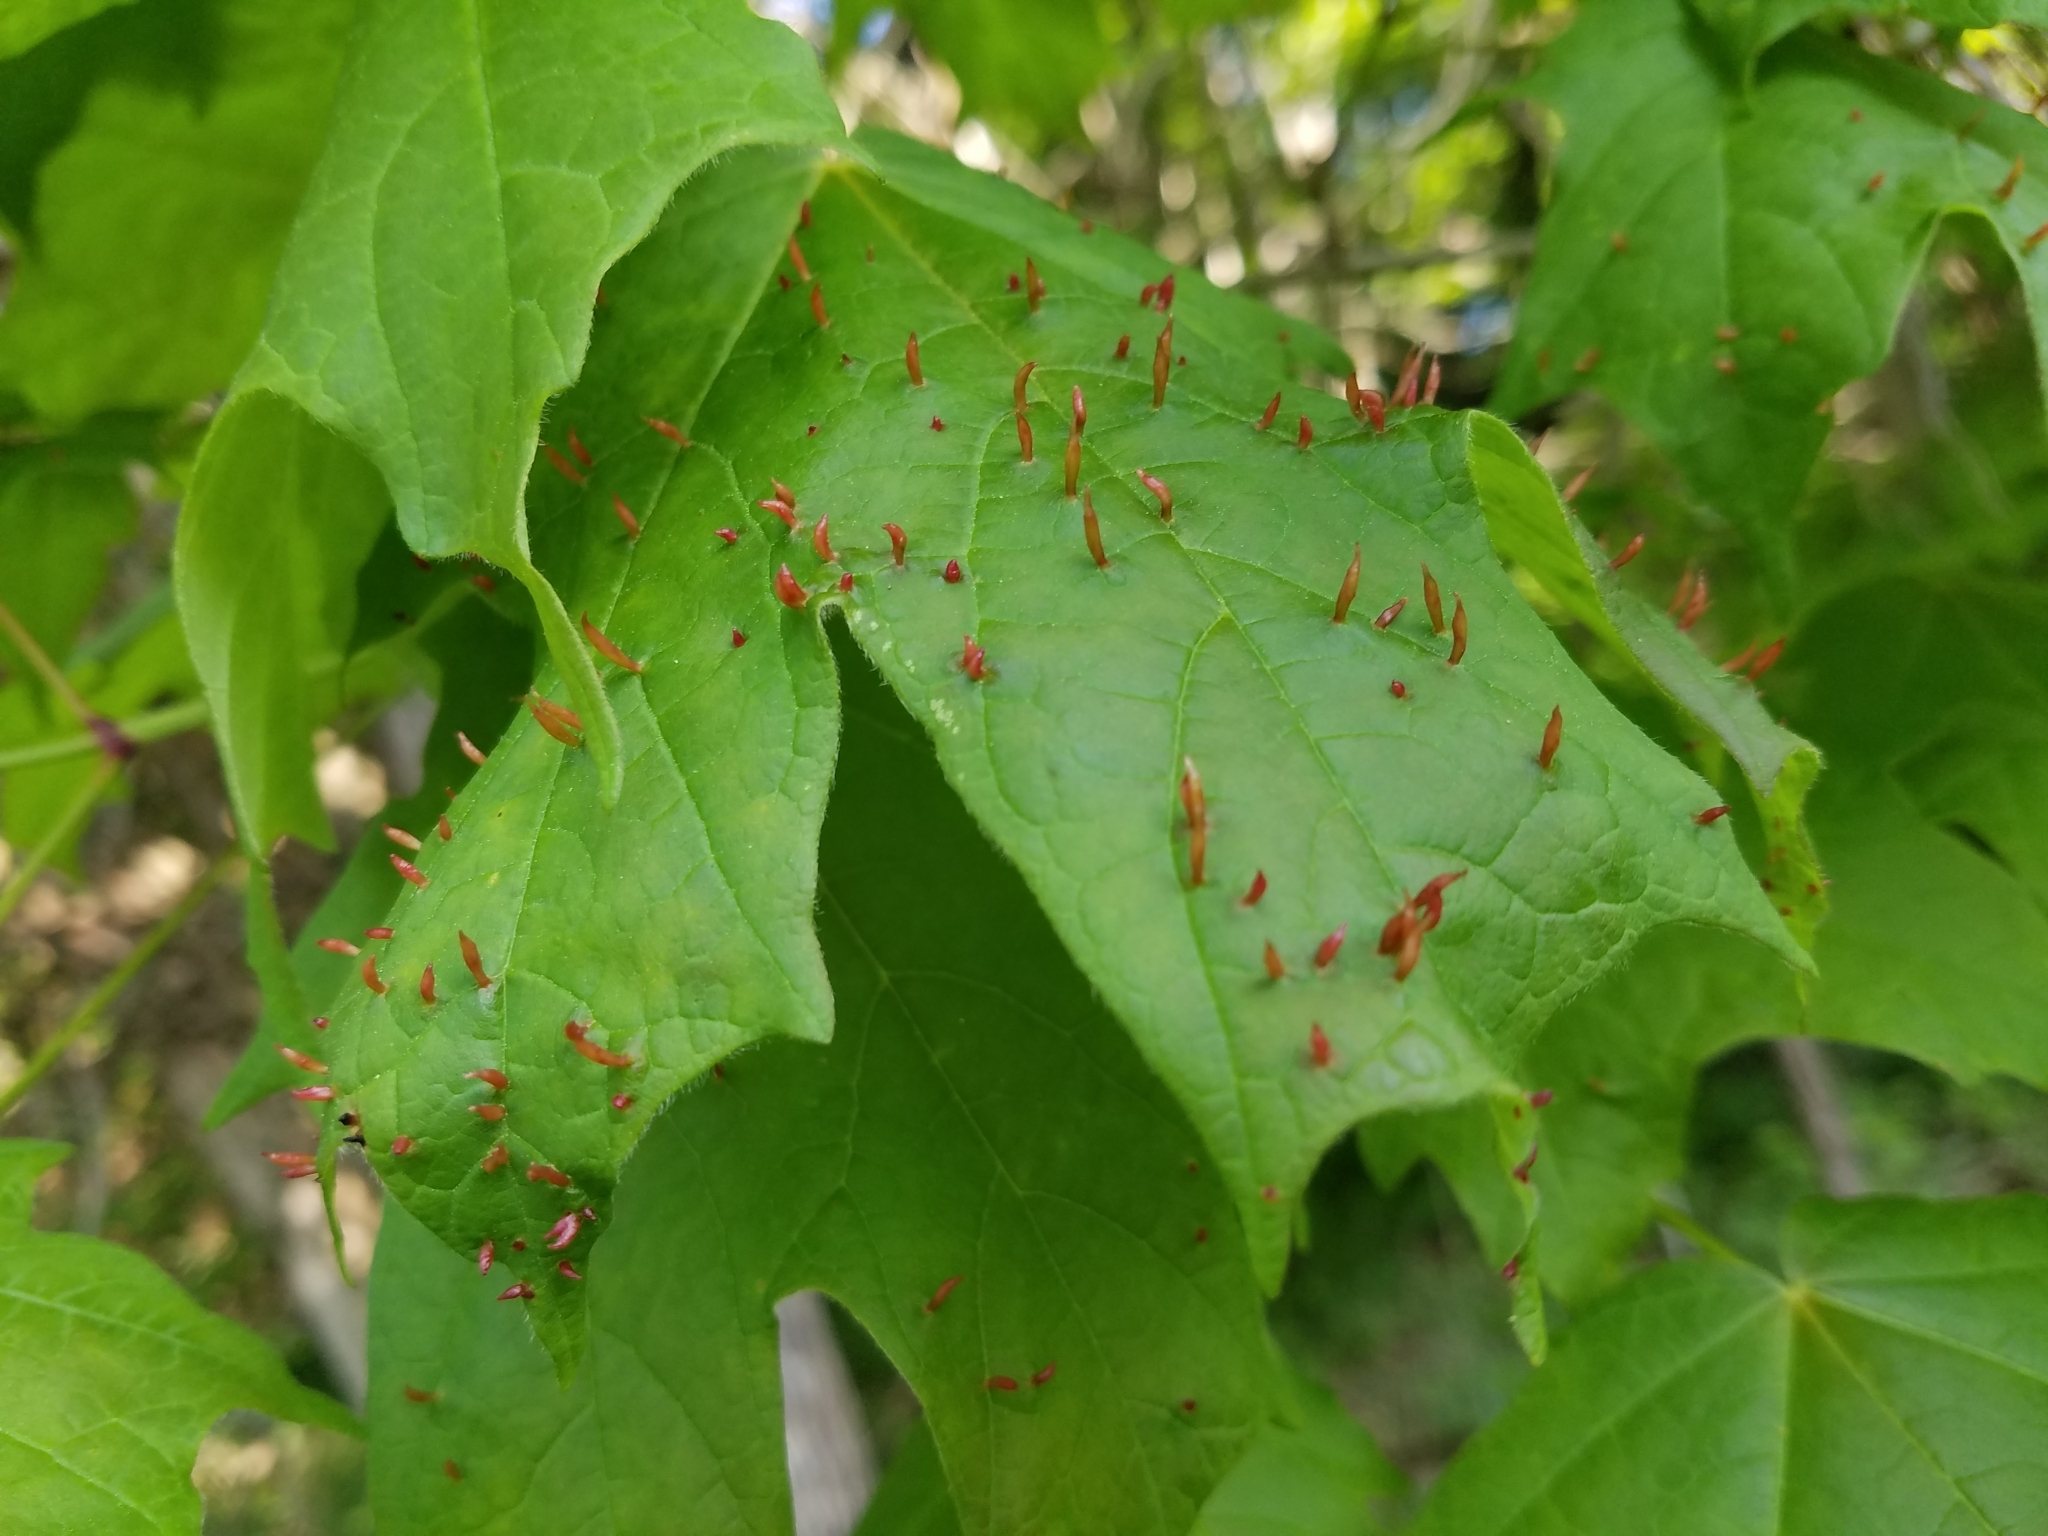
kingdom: Animalia
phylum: Arthropoda
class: Arachnida
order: Trombidiformes
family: Eriophyidae
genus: Vasates
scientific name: Vasates aceriscrumena
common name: Maple spindle gall mite
